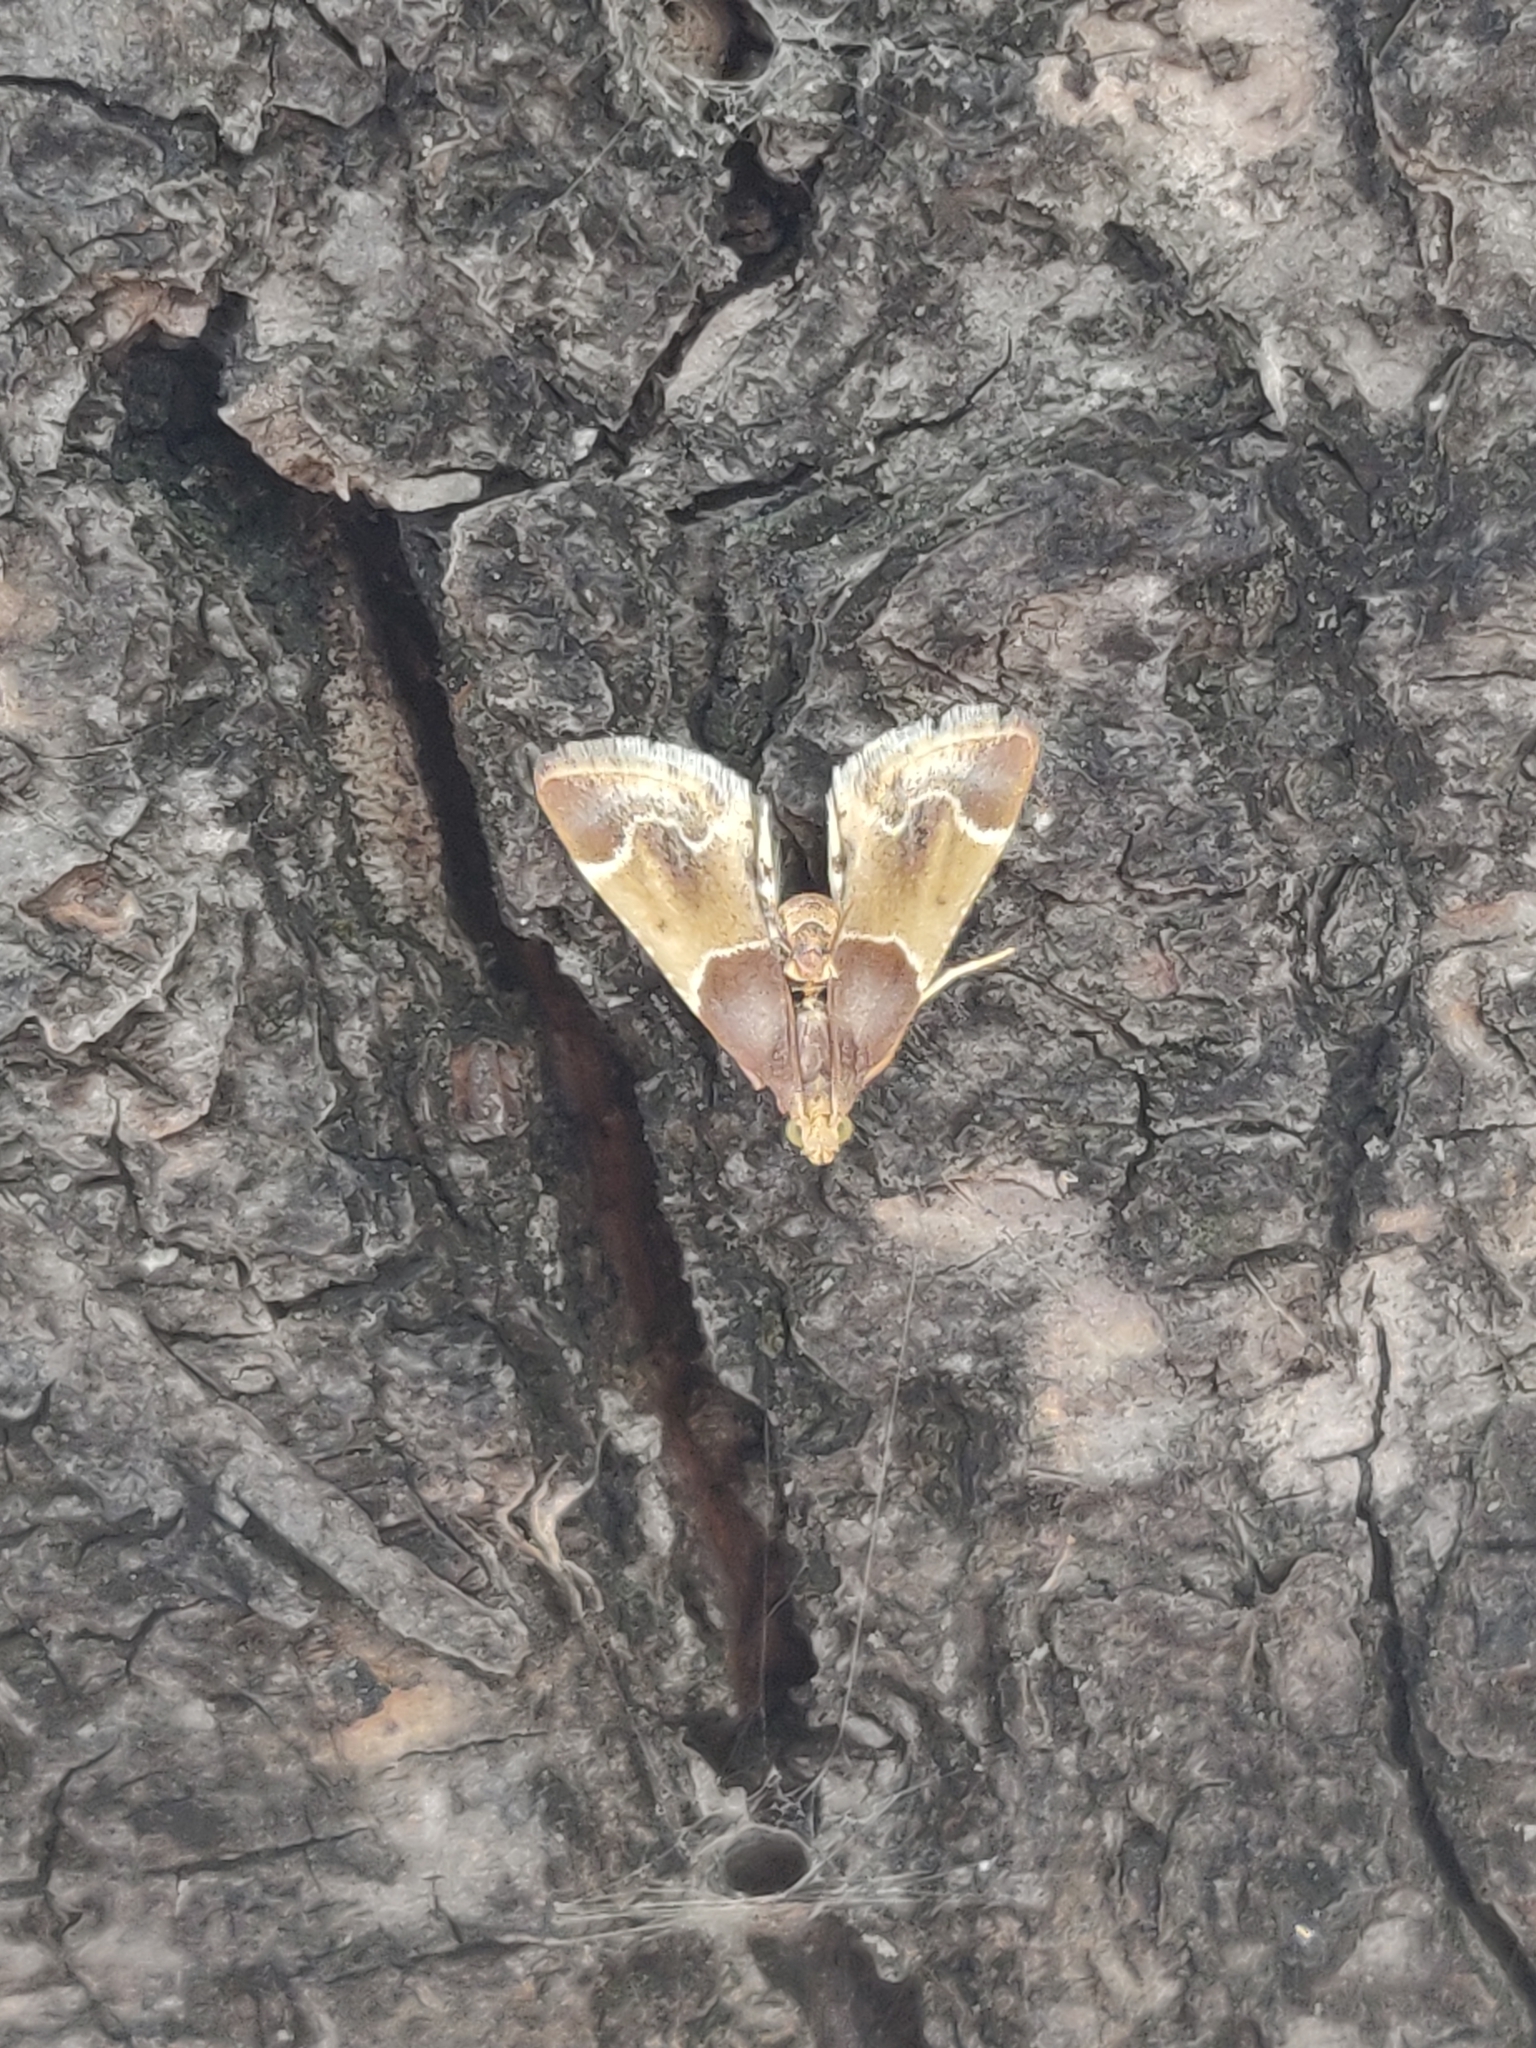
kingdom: Animalia
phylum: Arthropoda
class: Insecta
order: Lepidoptera
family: Pyralidae
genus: Pyralis
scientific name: Pyralis farinalis
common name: Meal moth
